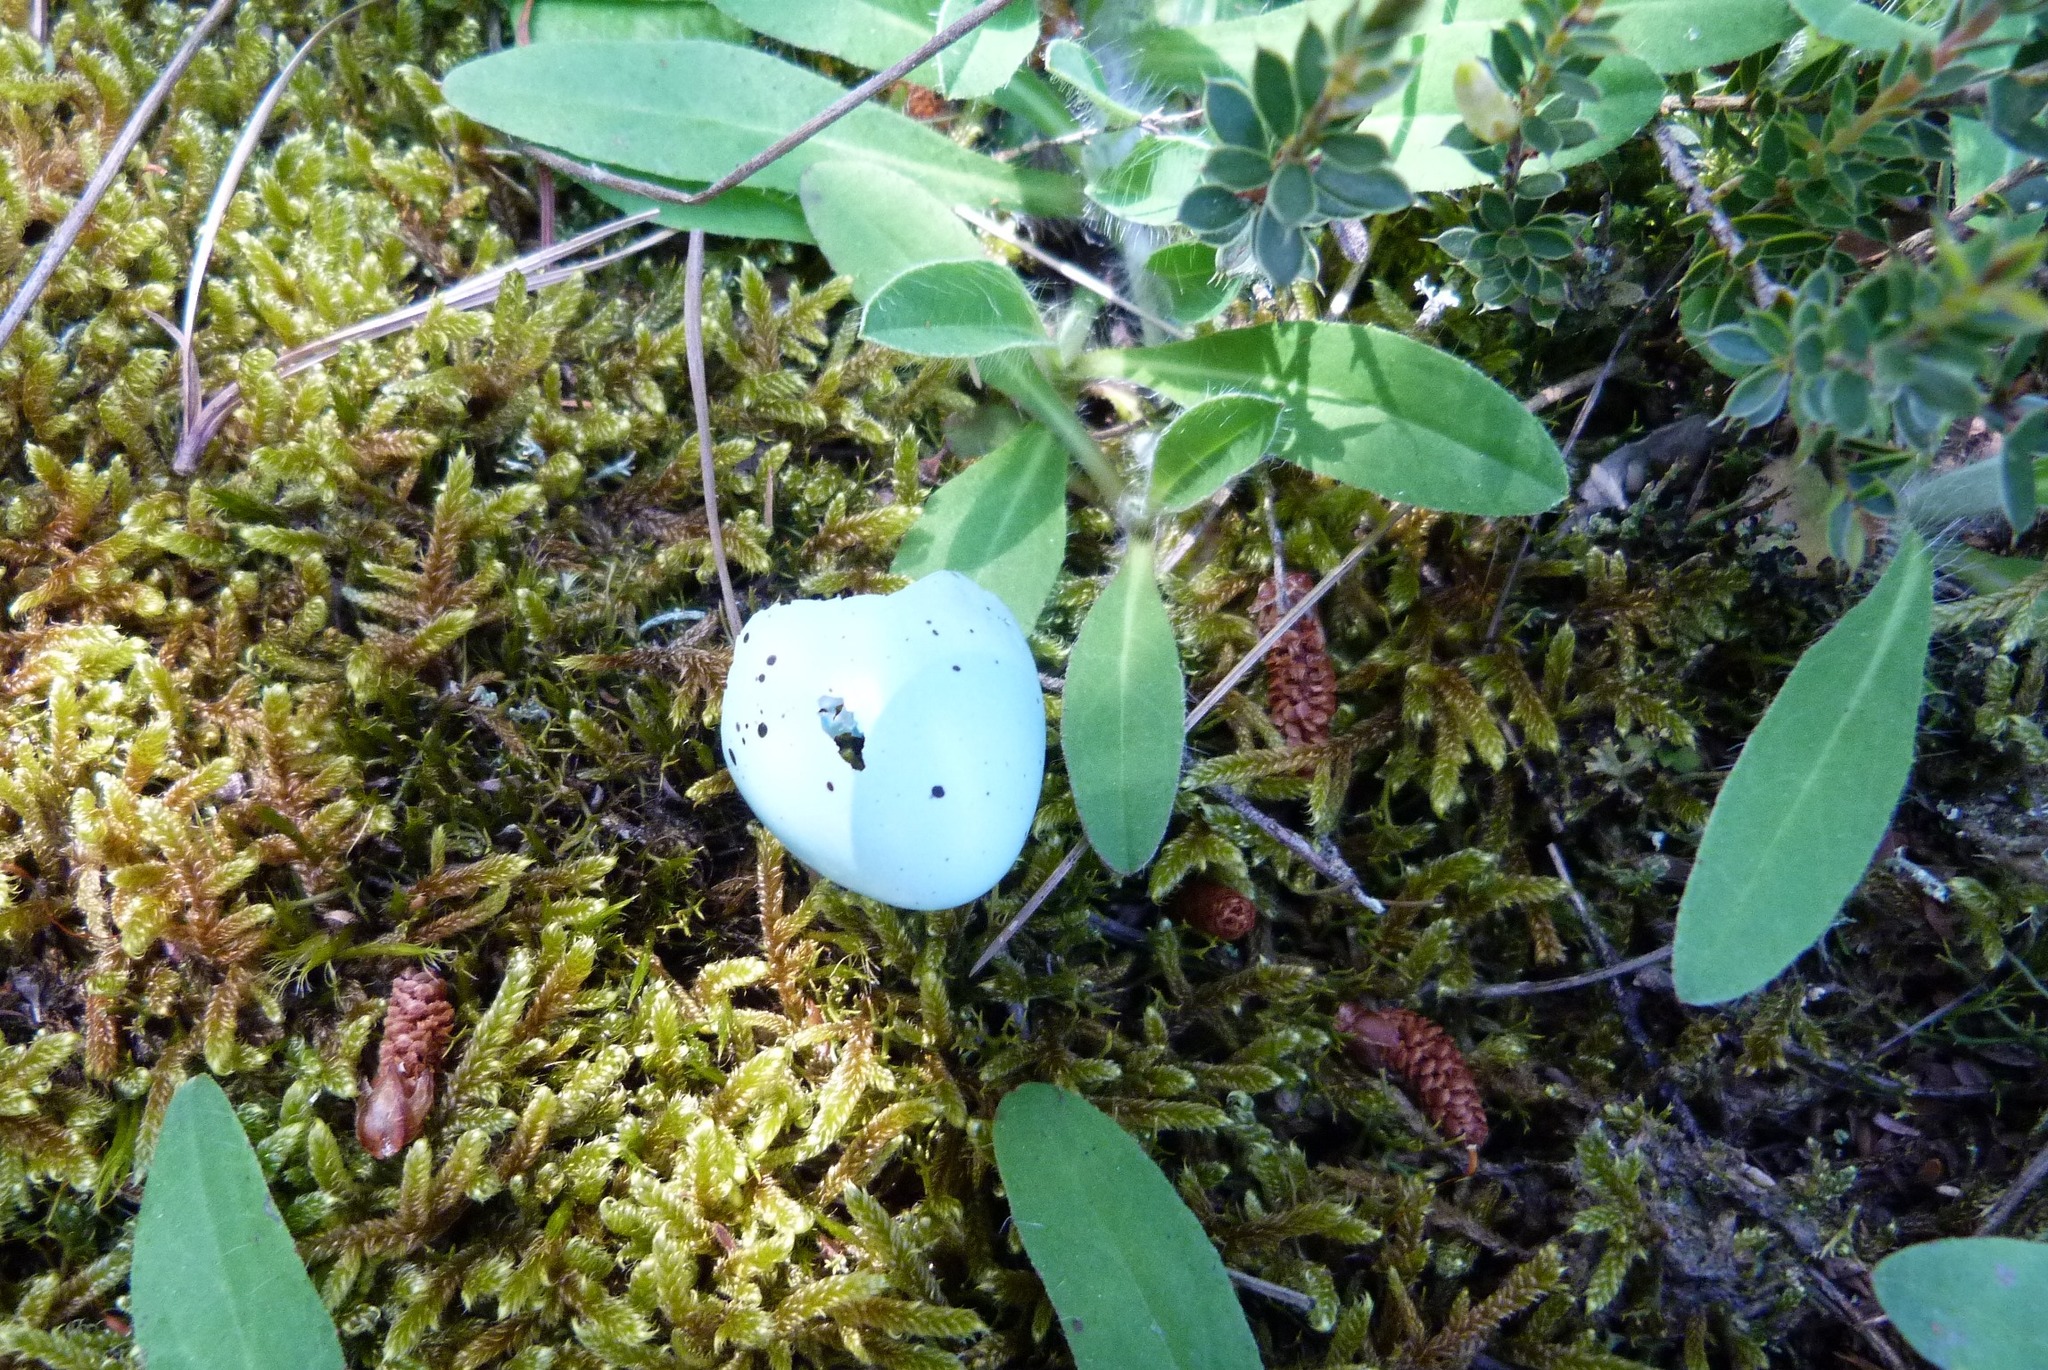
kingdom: Animalia
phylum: Chordata
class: Aves
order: Passeriformes
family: Turdidae
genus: Turdus
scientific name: Turdus philomelos
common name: Song thrush
